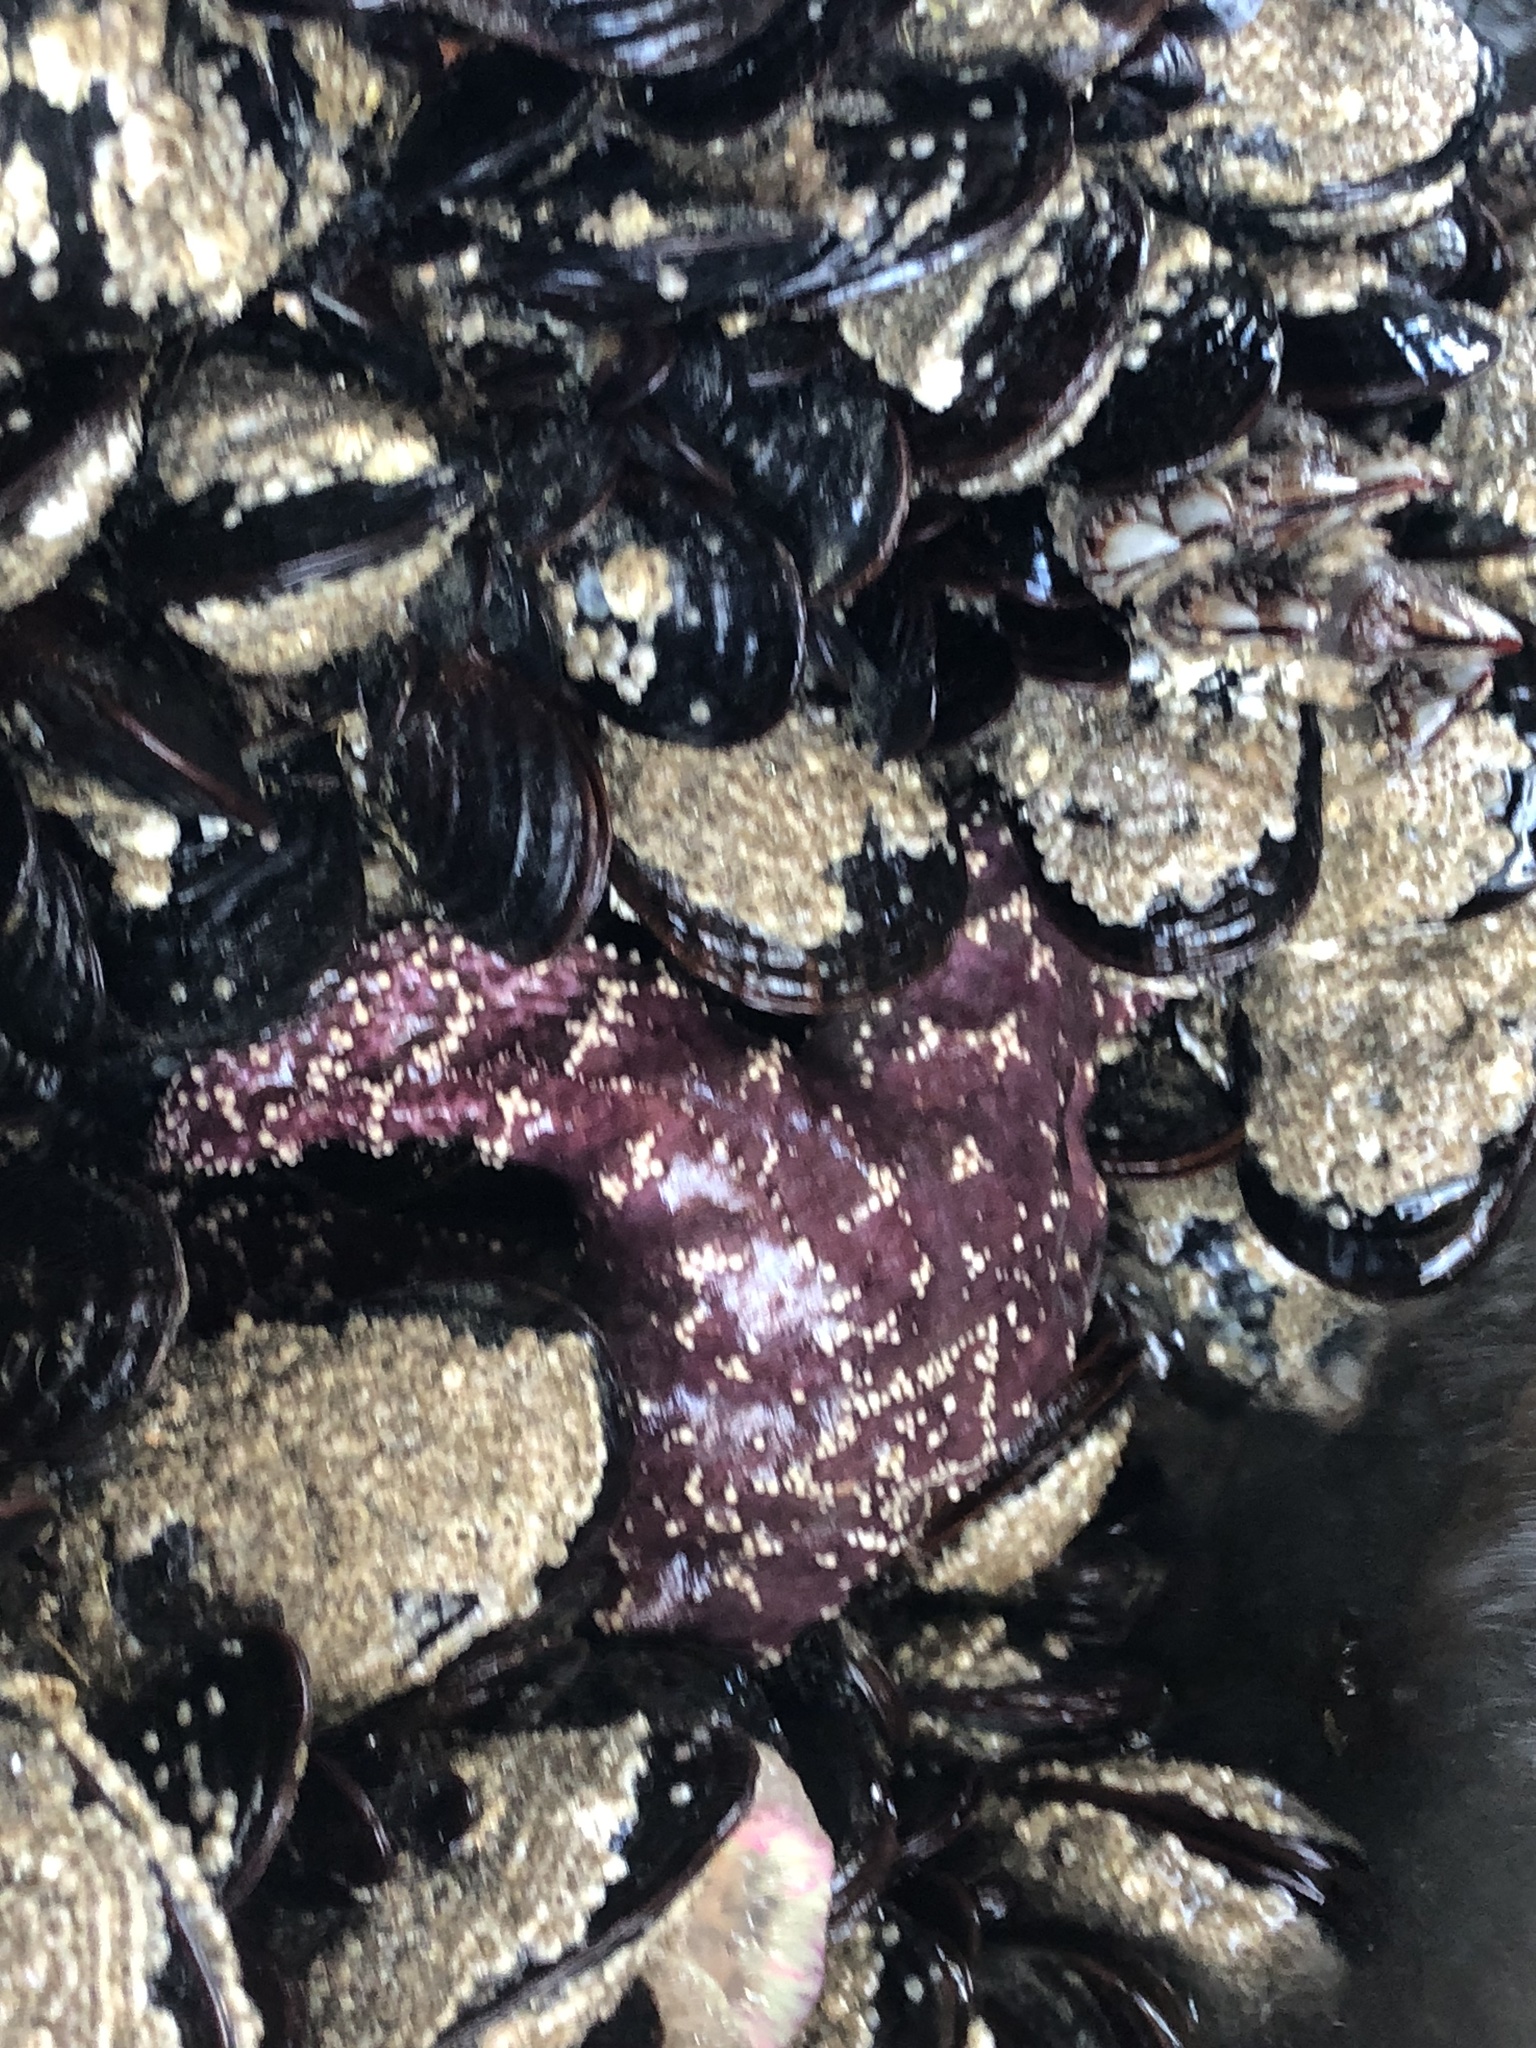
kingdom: Animalia
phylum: Echinodermata
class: Asteroidea
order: Forcipulatida
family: Asteriidae
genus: Pisaster
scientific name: Pisaster ochraceus
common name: Ochre stars
